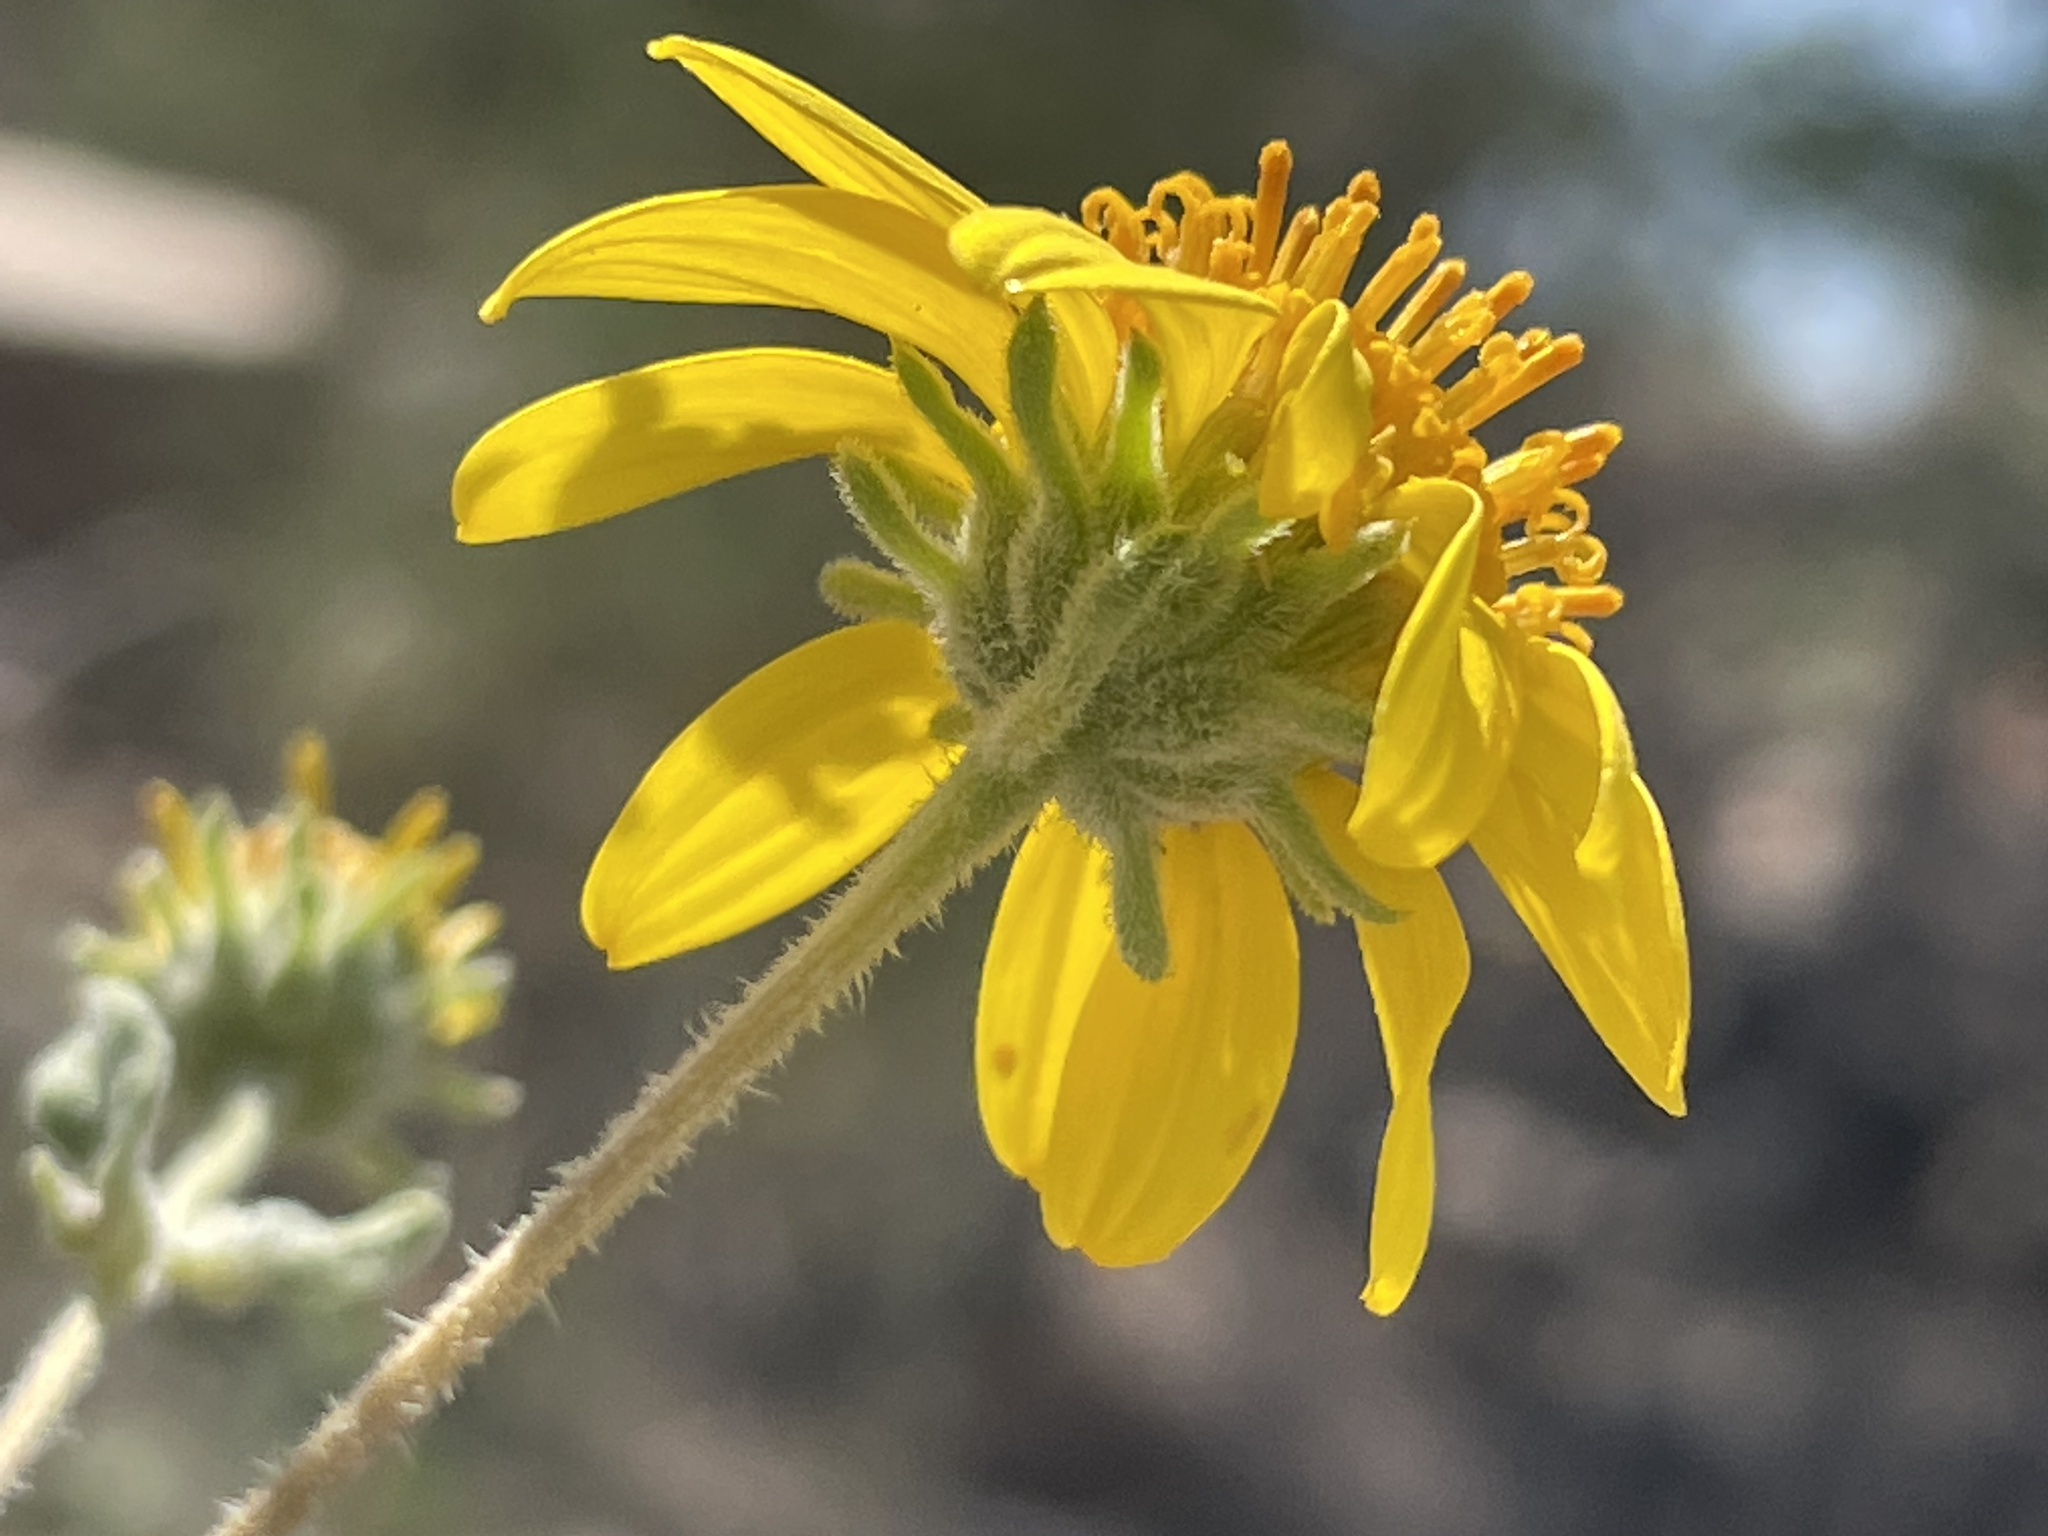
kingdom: Plantae
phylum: Tracheophyta
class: Magnoliopsida
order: Asterales
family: Asteraceae
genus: Bahiopsis
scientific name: Bahiopsis parishii
